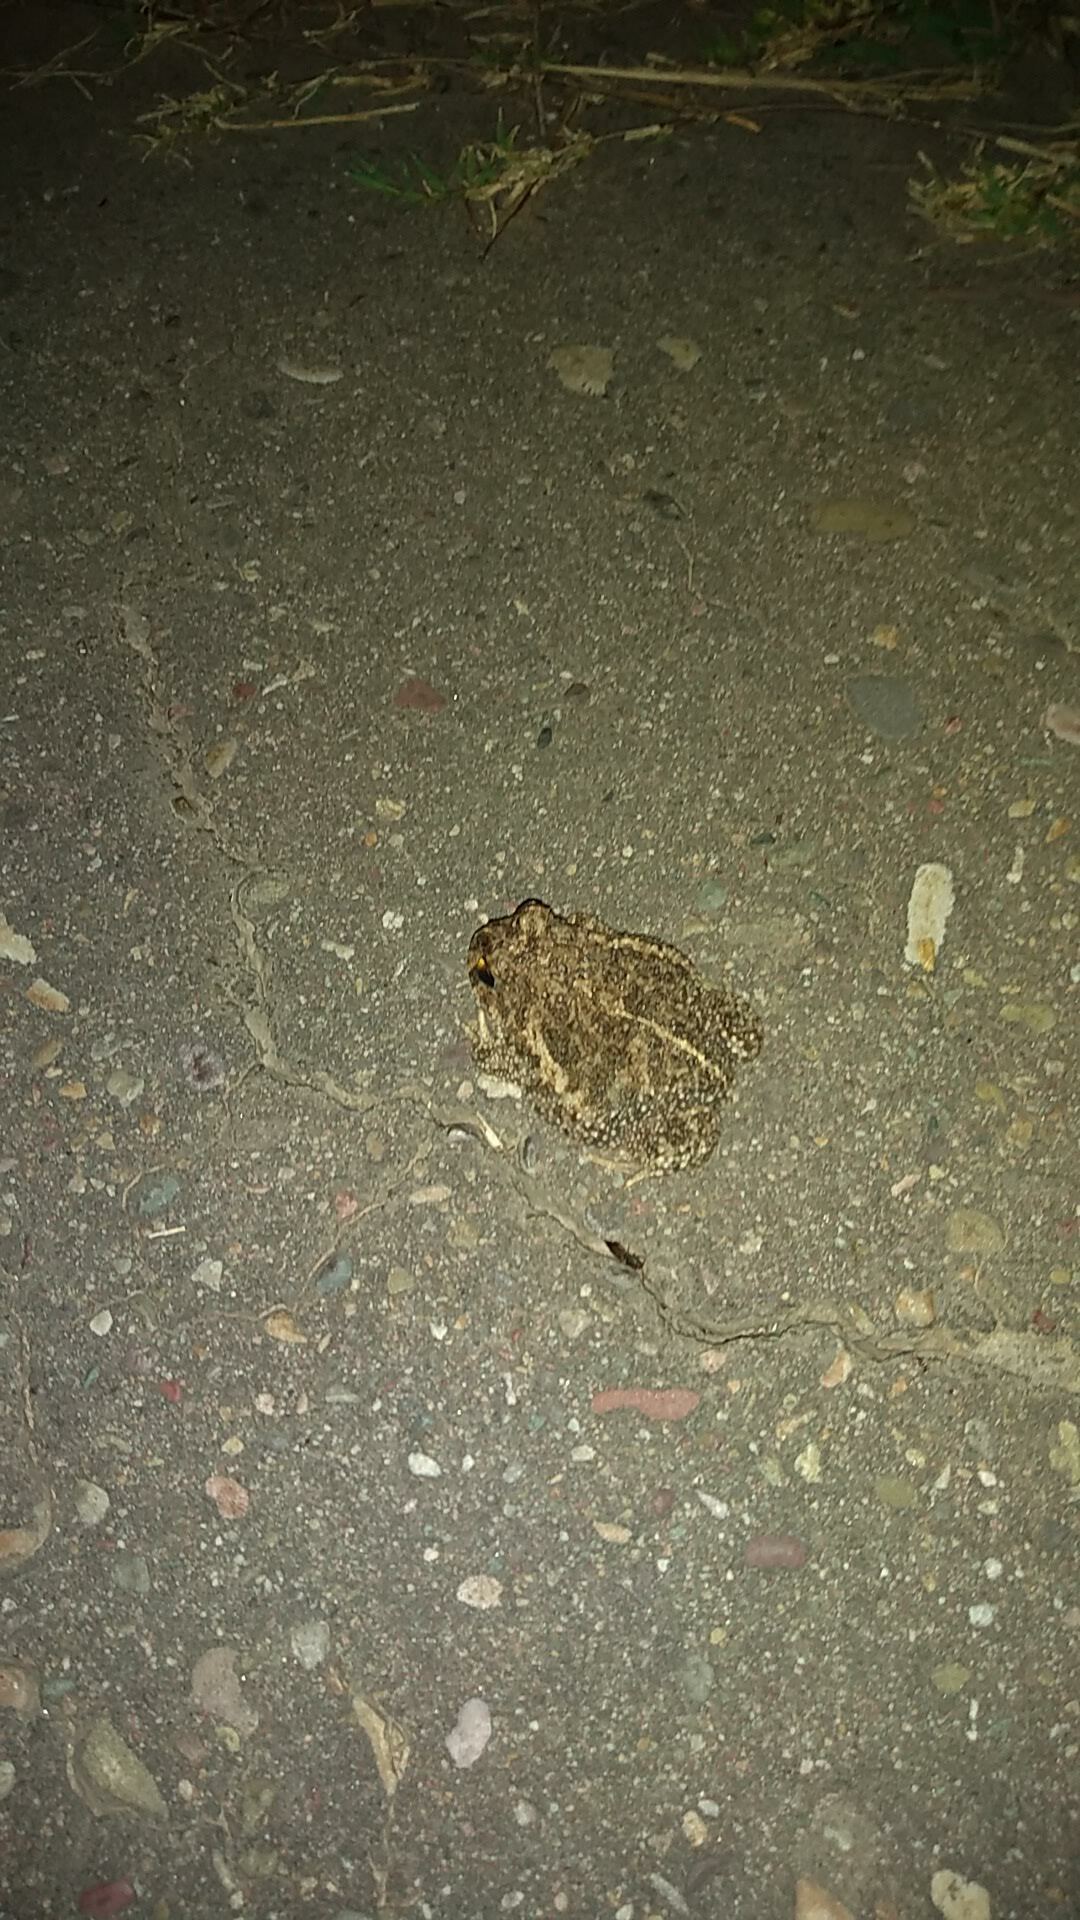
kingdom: Animalia
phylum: Chordata
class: Amphibia
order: Anura
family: Odontophrynidae
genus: Odontophrynus
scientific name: Odontophrynus
